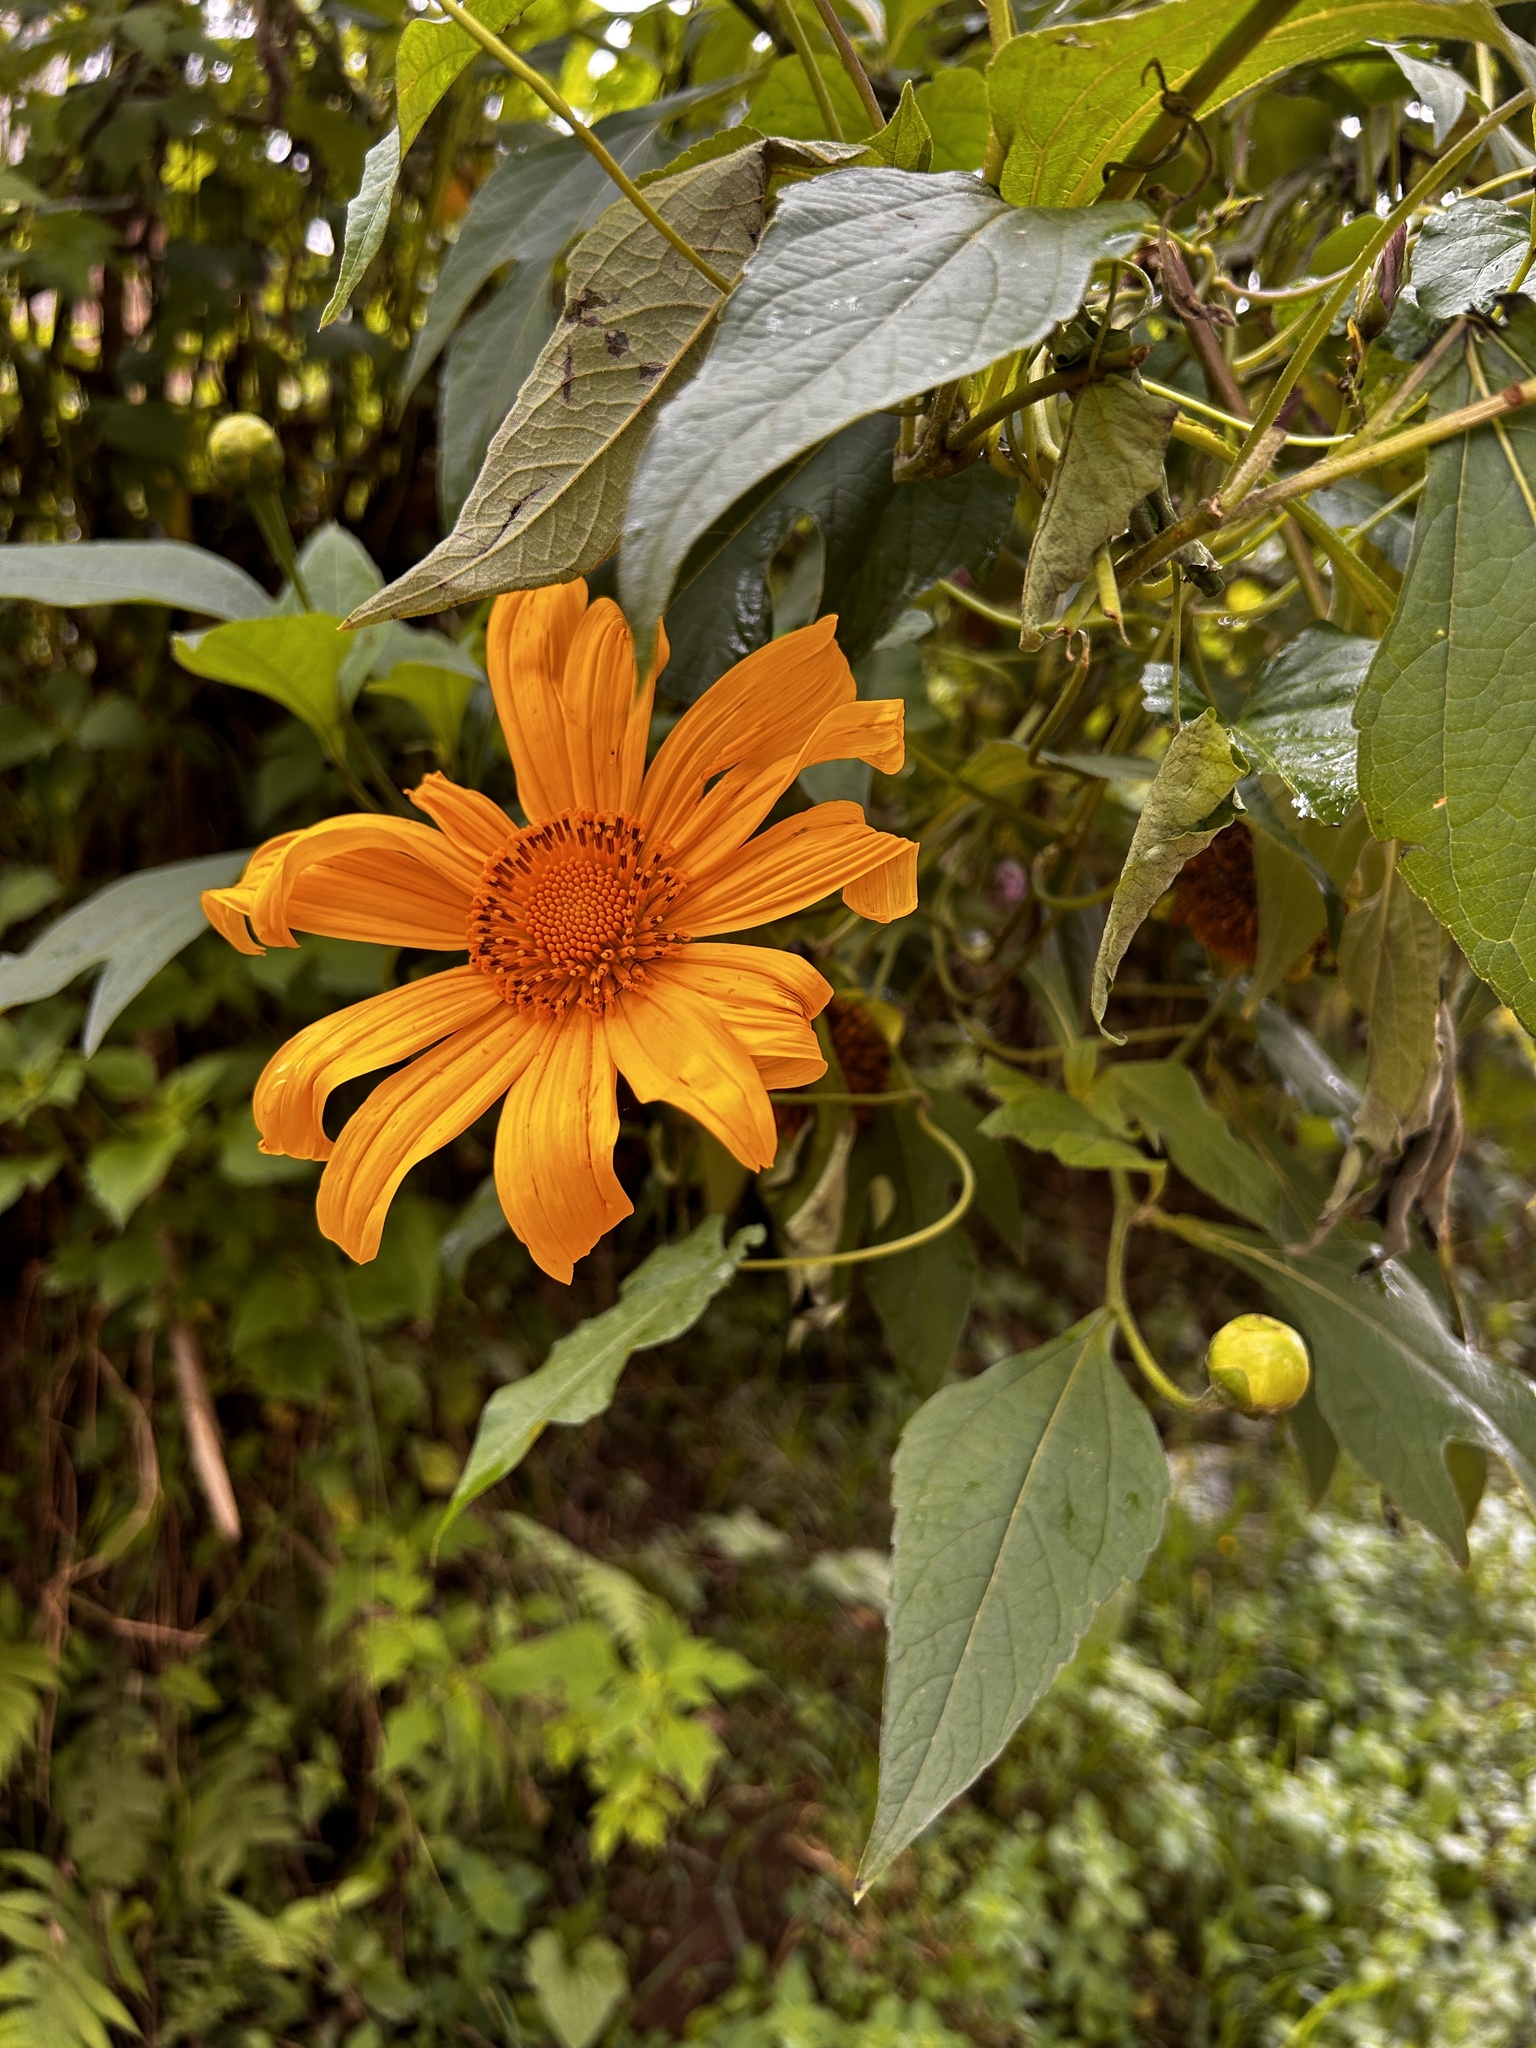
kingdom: Plantae
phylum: Tracheophyta
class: Magnoliopsida
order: Asterales
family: Asteraceae
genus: Tithonia
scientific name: Tithonia diversifolia
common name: Tree marigold
